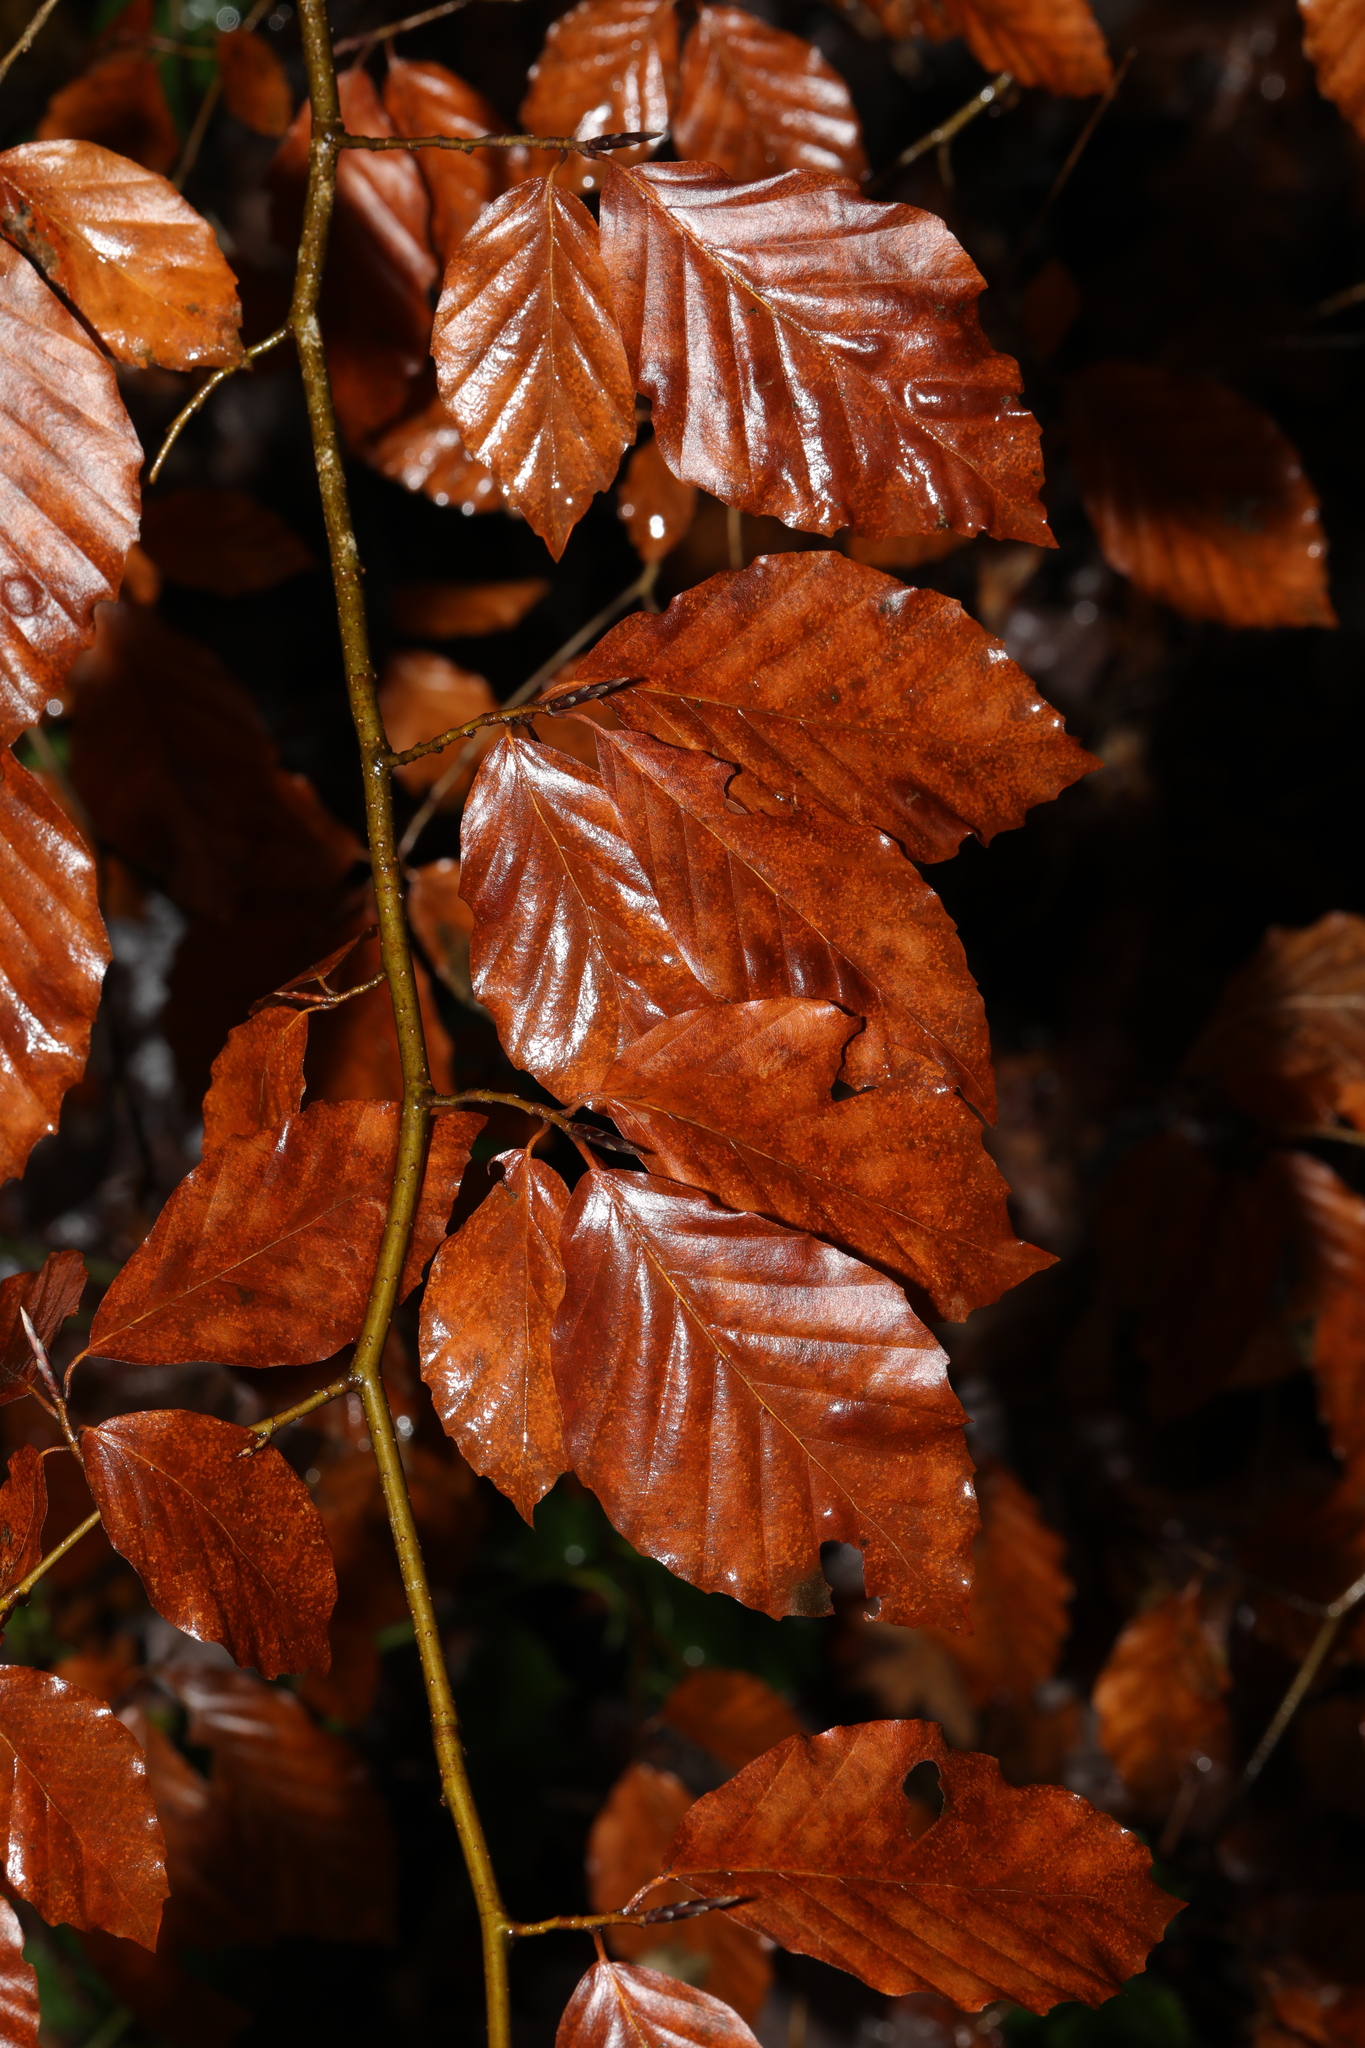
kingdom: Plantae
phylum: Tracheophyta
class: Magnoliopsida
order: Fagales
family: Fagaceae
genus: Fagus
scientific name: Fagus sylvatica
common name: Beech
